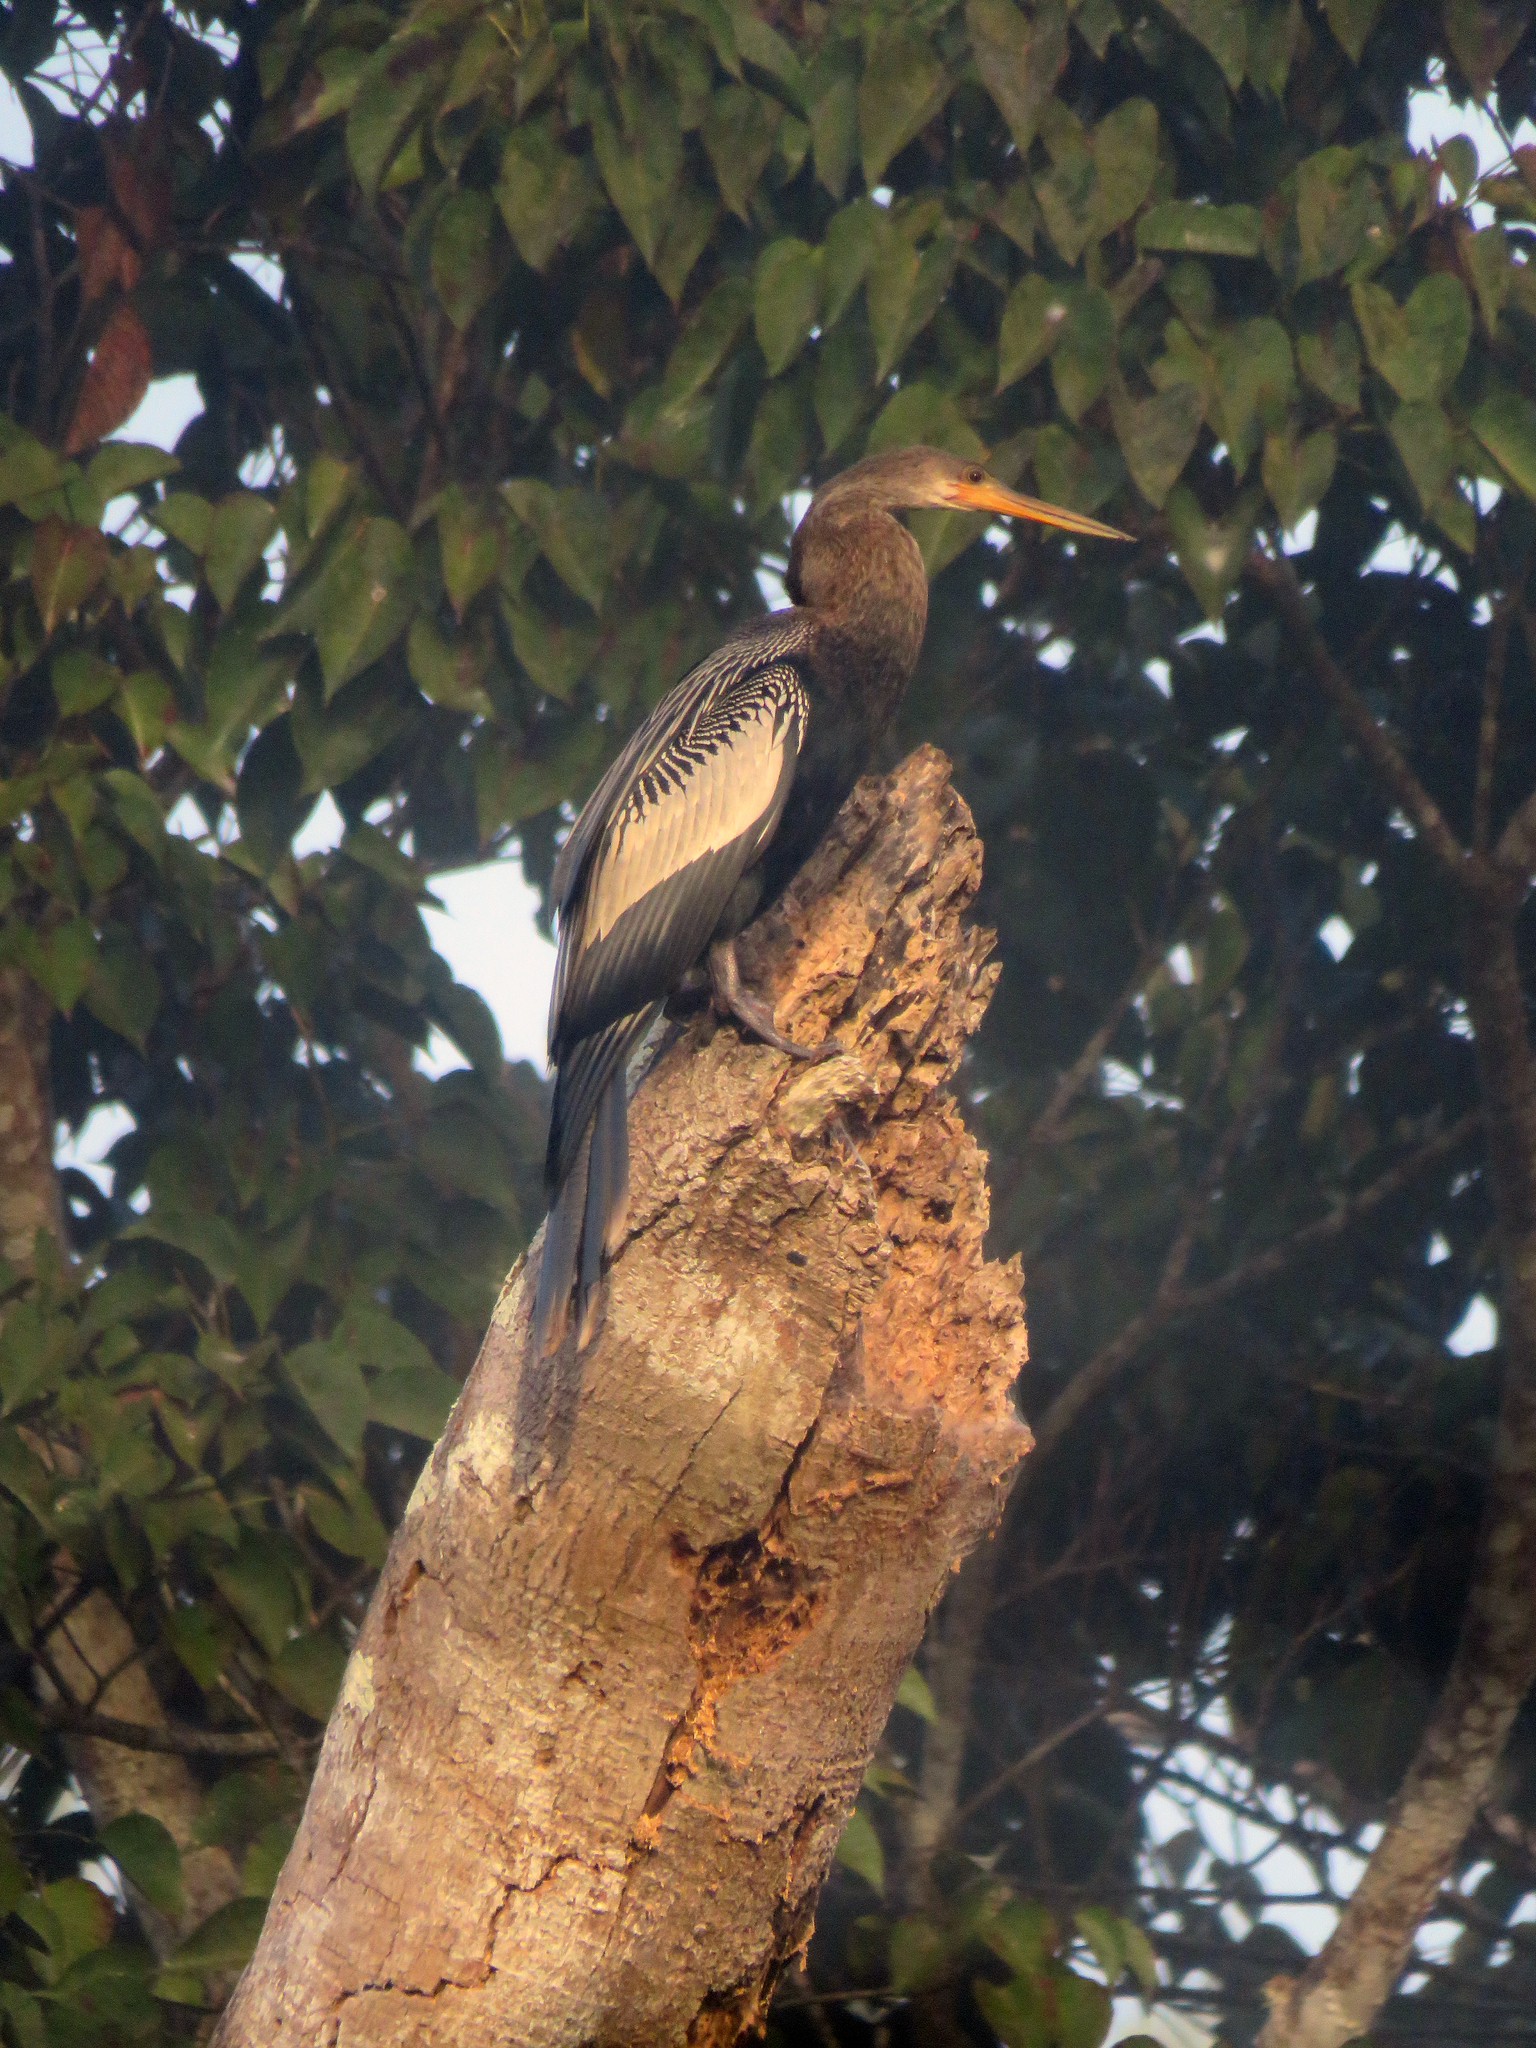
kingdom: Animalia
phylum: Chordata
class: Aves
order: Suliformes
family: Anhingidae
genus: Anhinga
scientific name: Anhinga anhinga
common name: Anhinga
